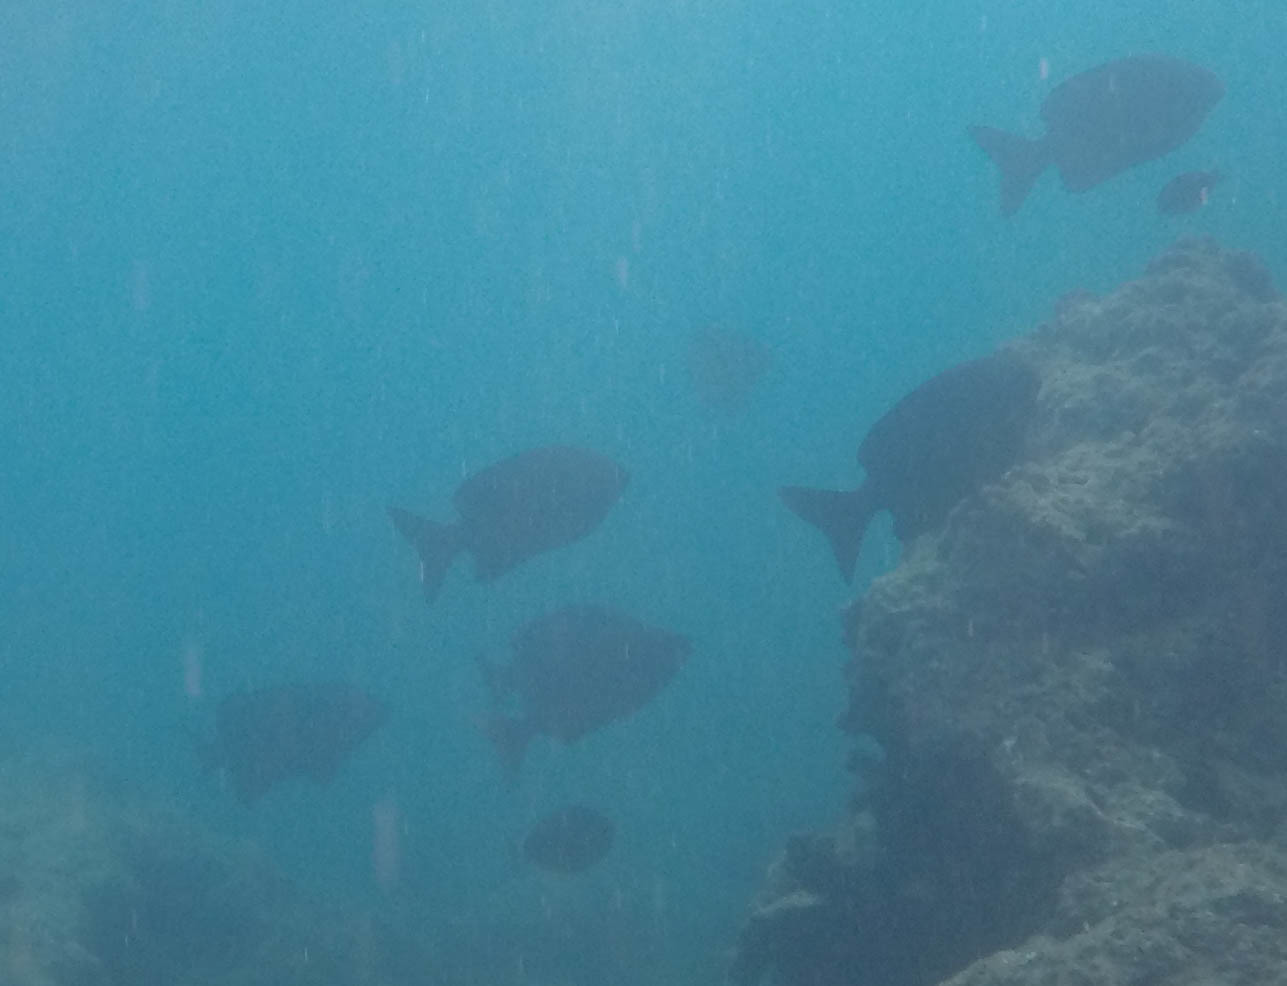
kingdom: Animalia
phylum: Chordata
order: Perciformes
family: Kyphosidae
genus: Kyphosus
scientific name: Kyphosus cinerascens
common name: Topsail drummer
